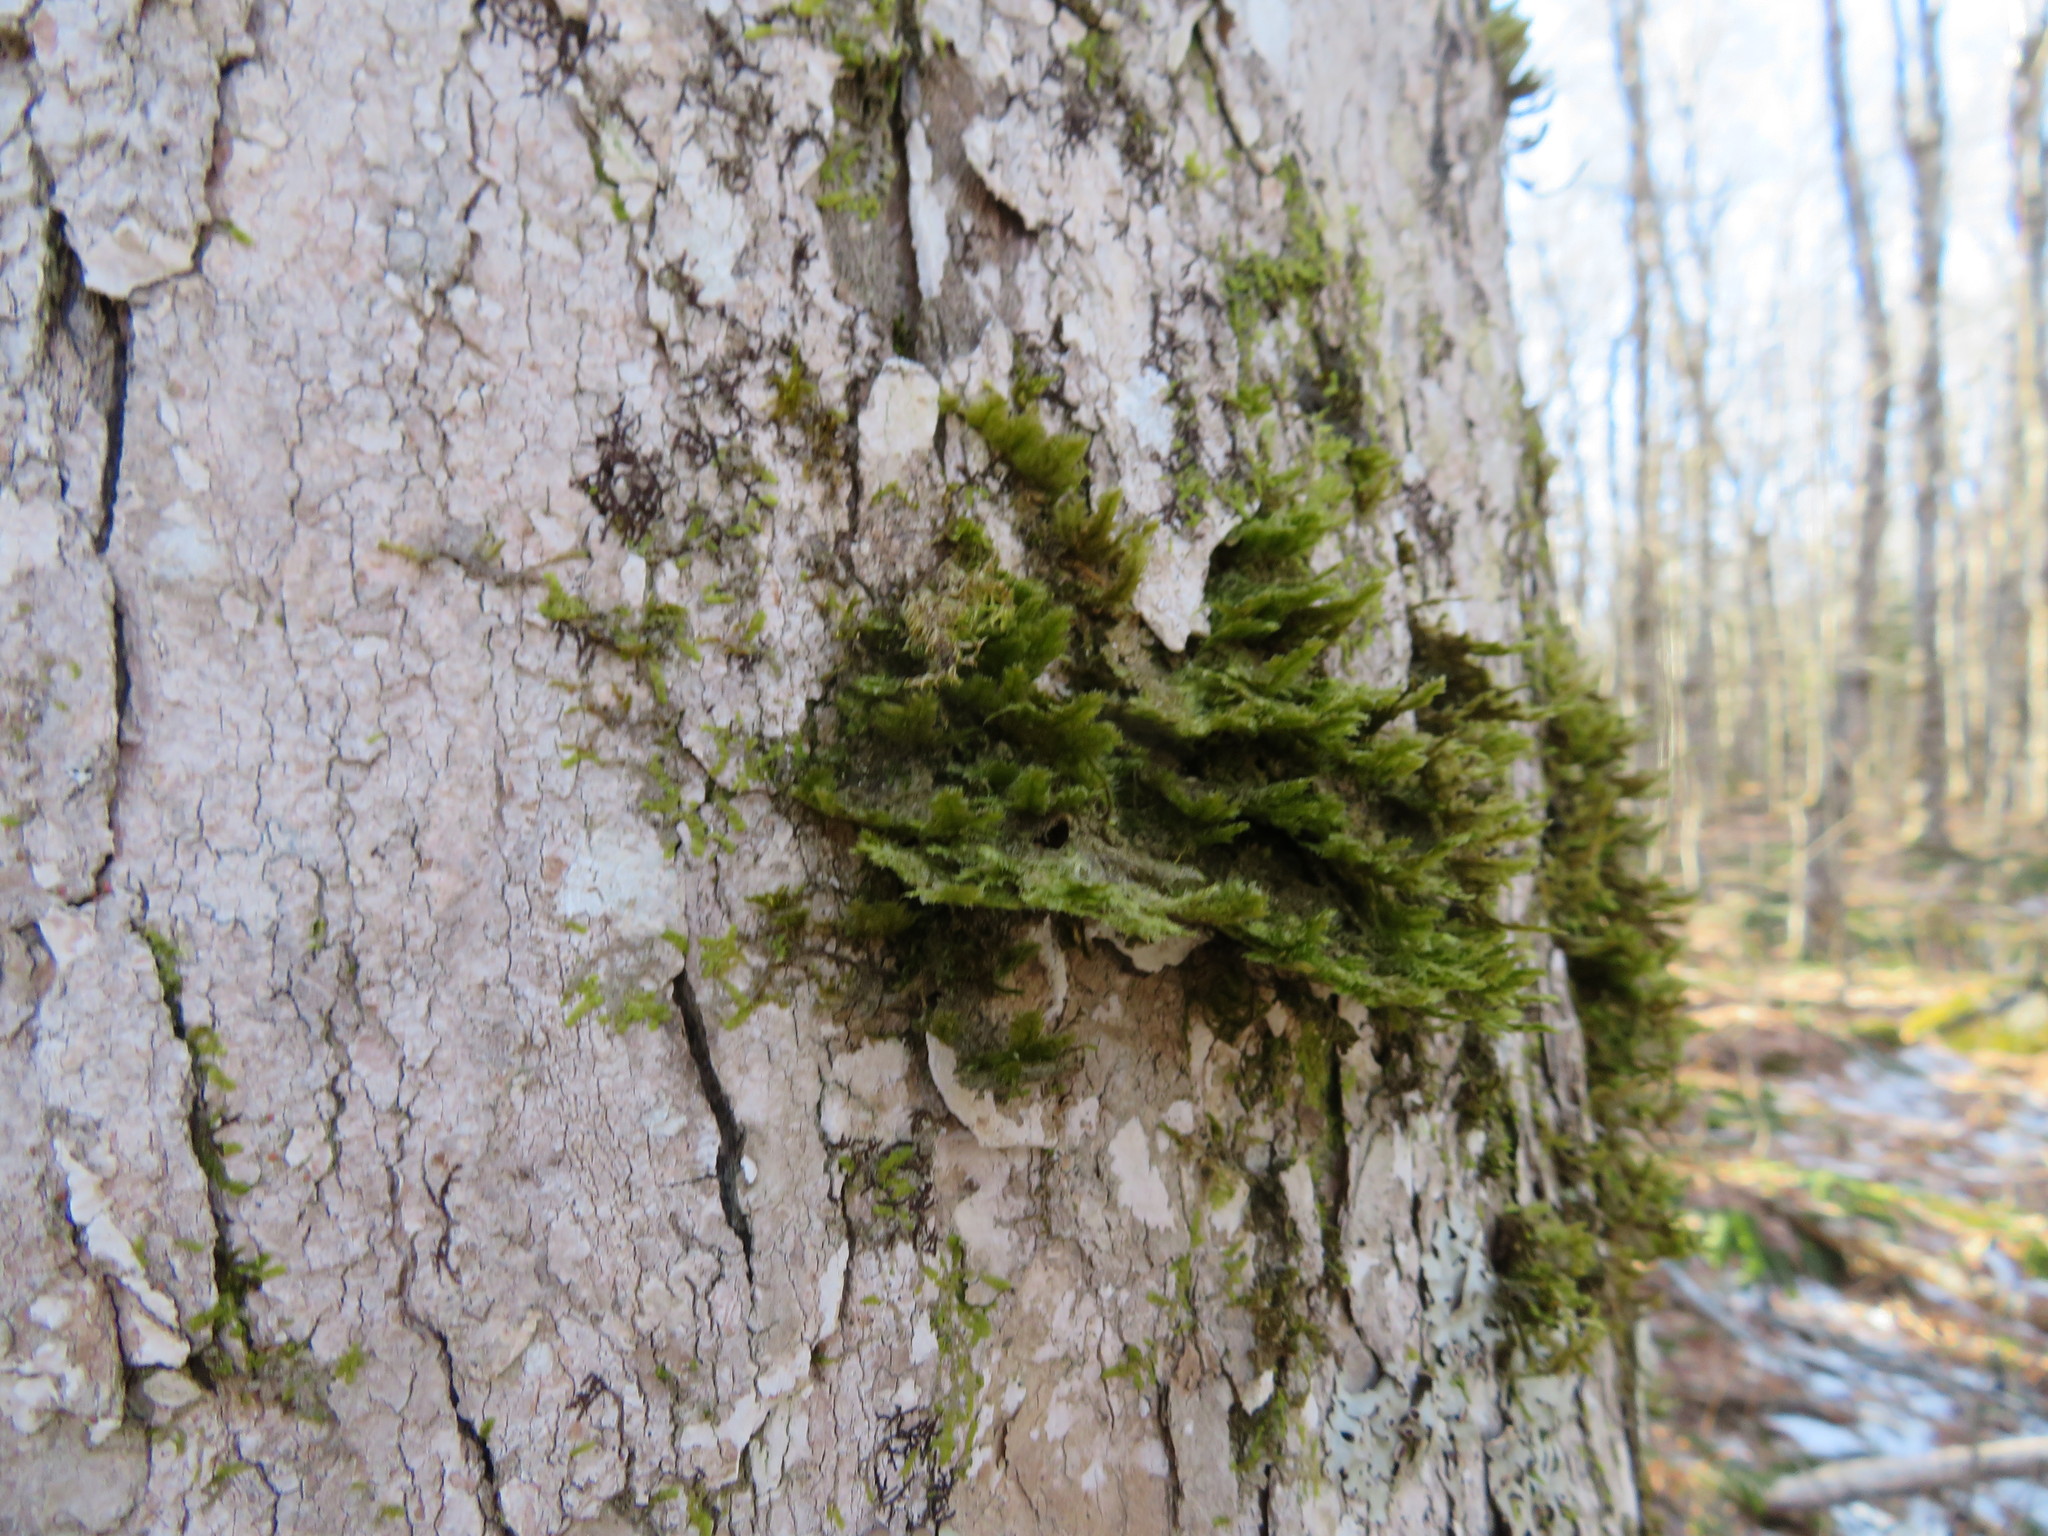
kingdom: Plantae
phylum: Bryophyta
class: Bryopsida
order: Hypnales
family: Neckeraceae
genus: Neckera
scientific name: Neckera pennata
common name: Feathery neckera
